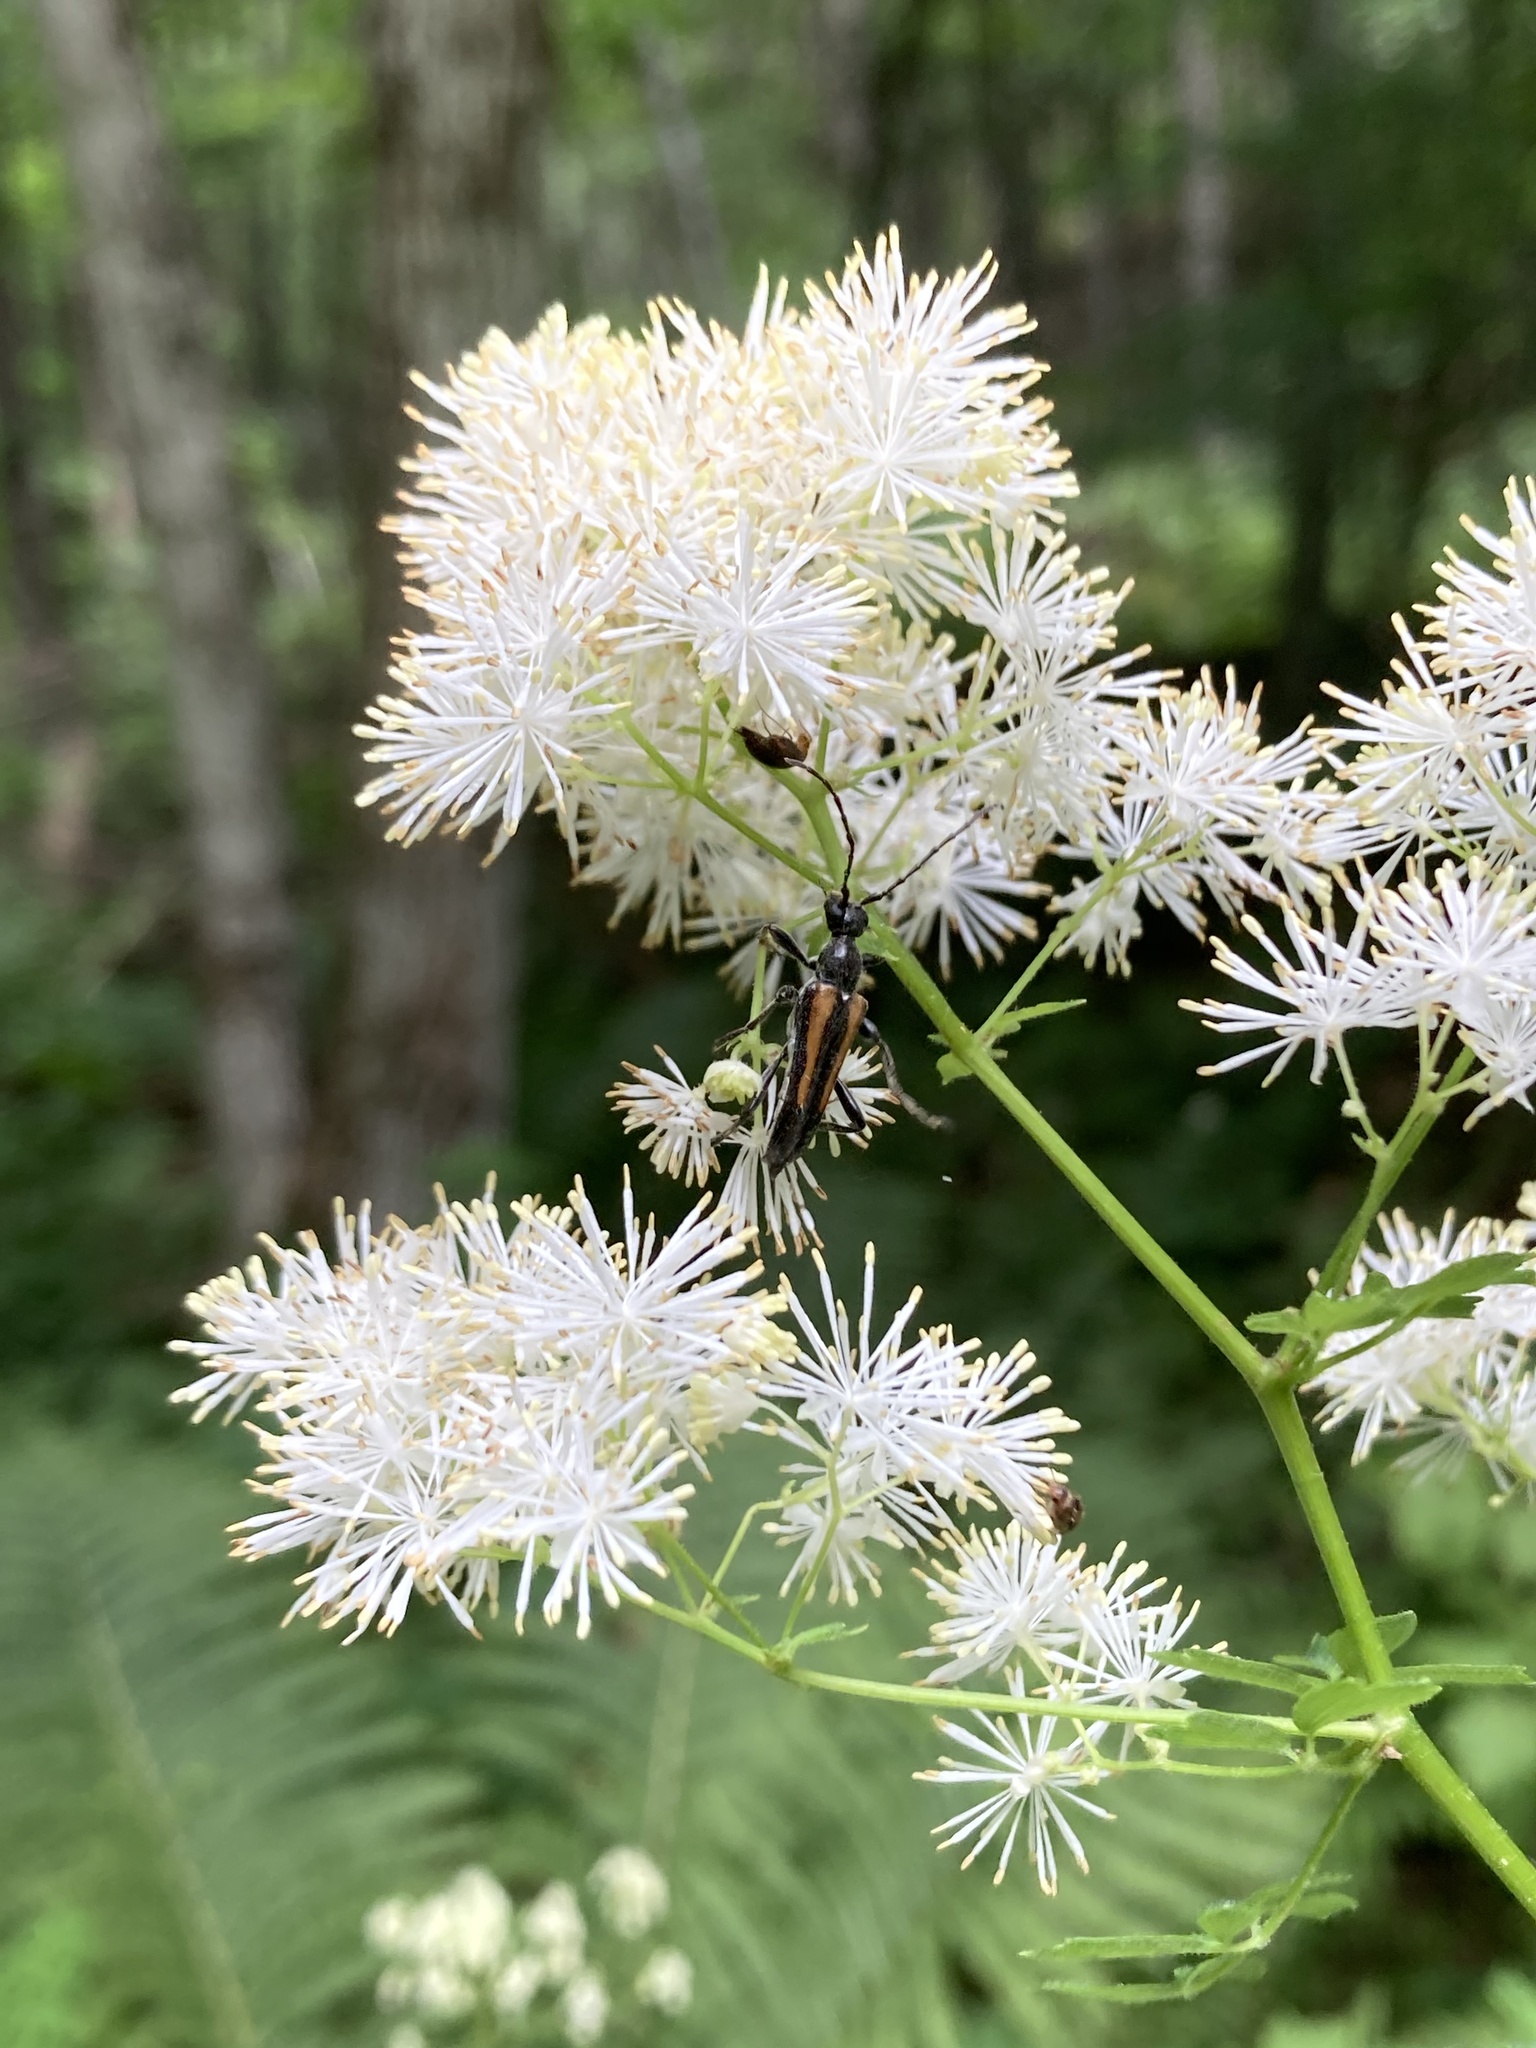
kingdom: Animalia
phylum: Arthropoda
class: Insecta
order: Coleoptera
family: Cerambycidae
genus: Strangalepta
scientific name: Strangalepta abbreviata
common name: Strangalepta flower longhorn beetle
